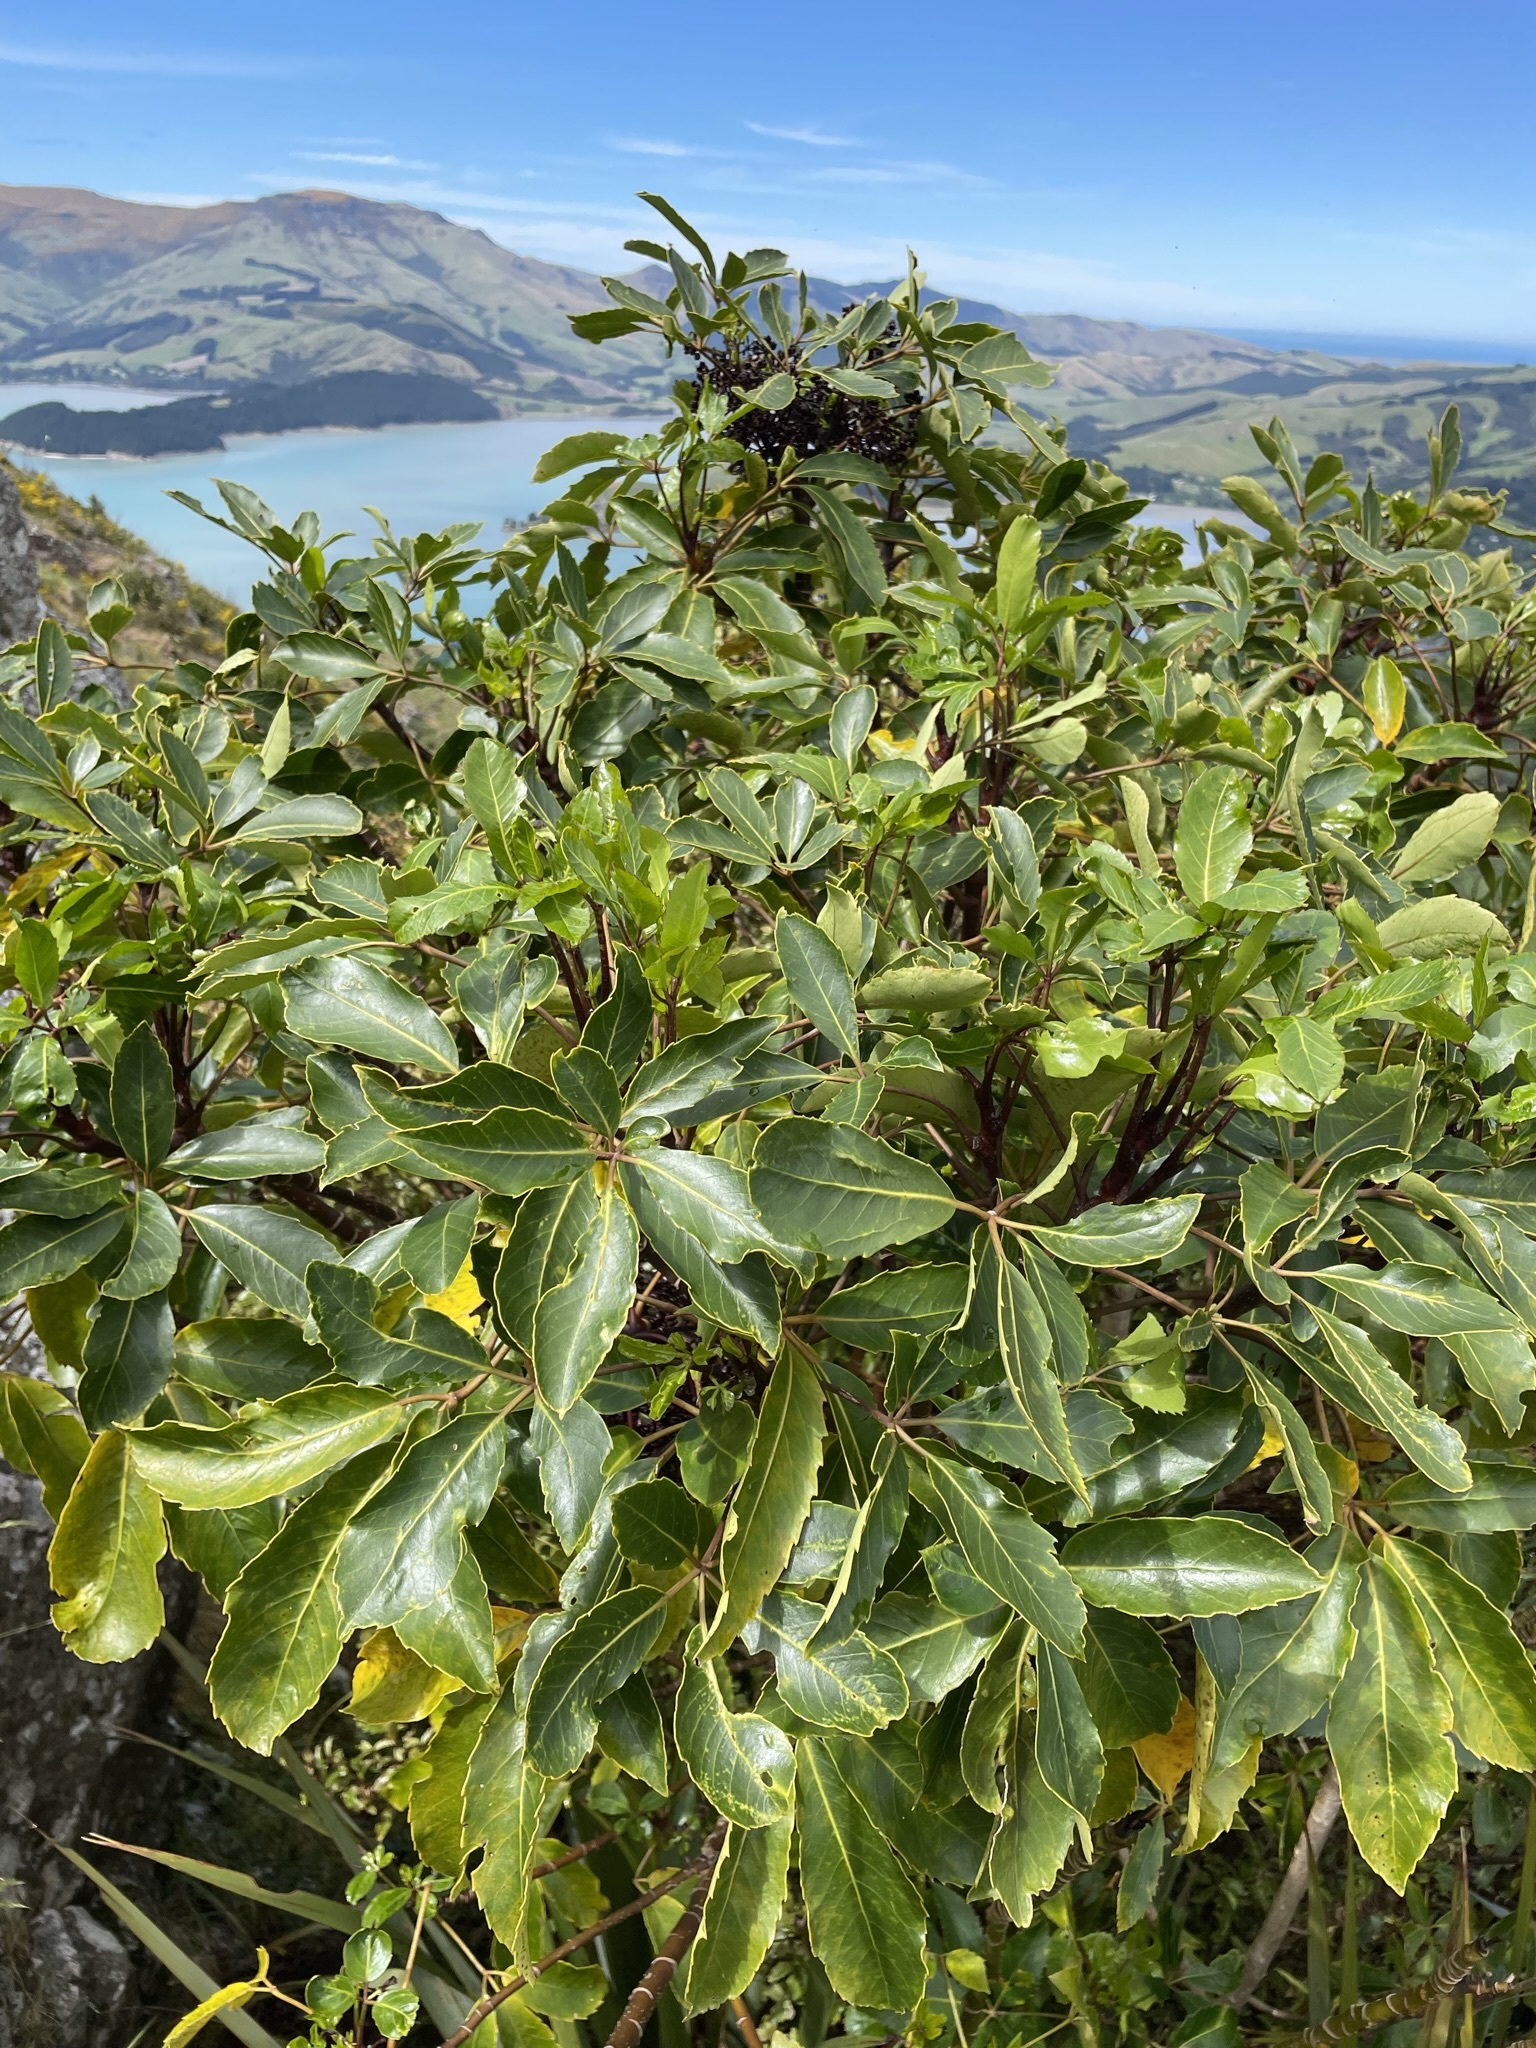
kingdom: Plantae
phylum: Tracheophyta
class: Magnoliopsida
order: Apiales
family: Araliaceae
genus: Neopanax
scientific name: Neopanax arboreus
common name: Five-fingers
